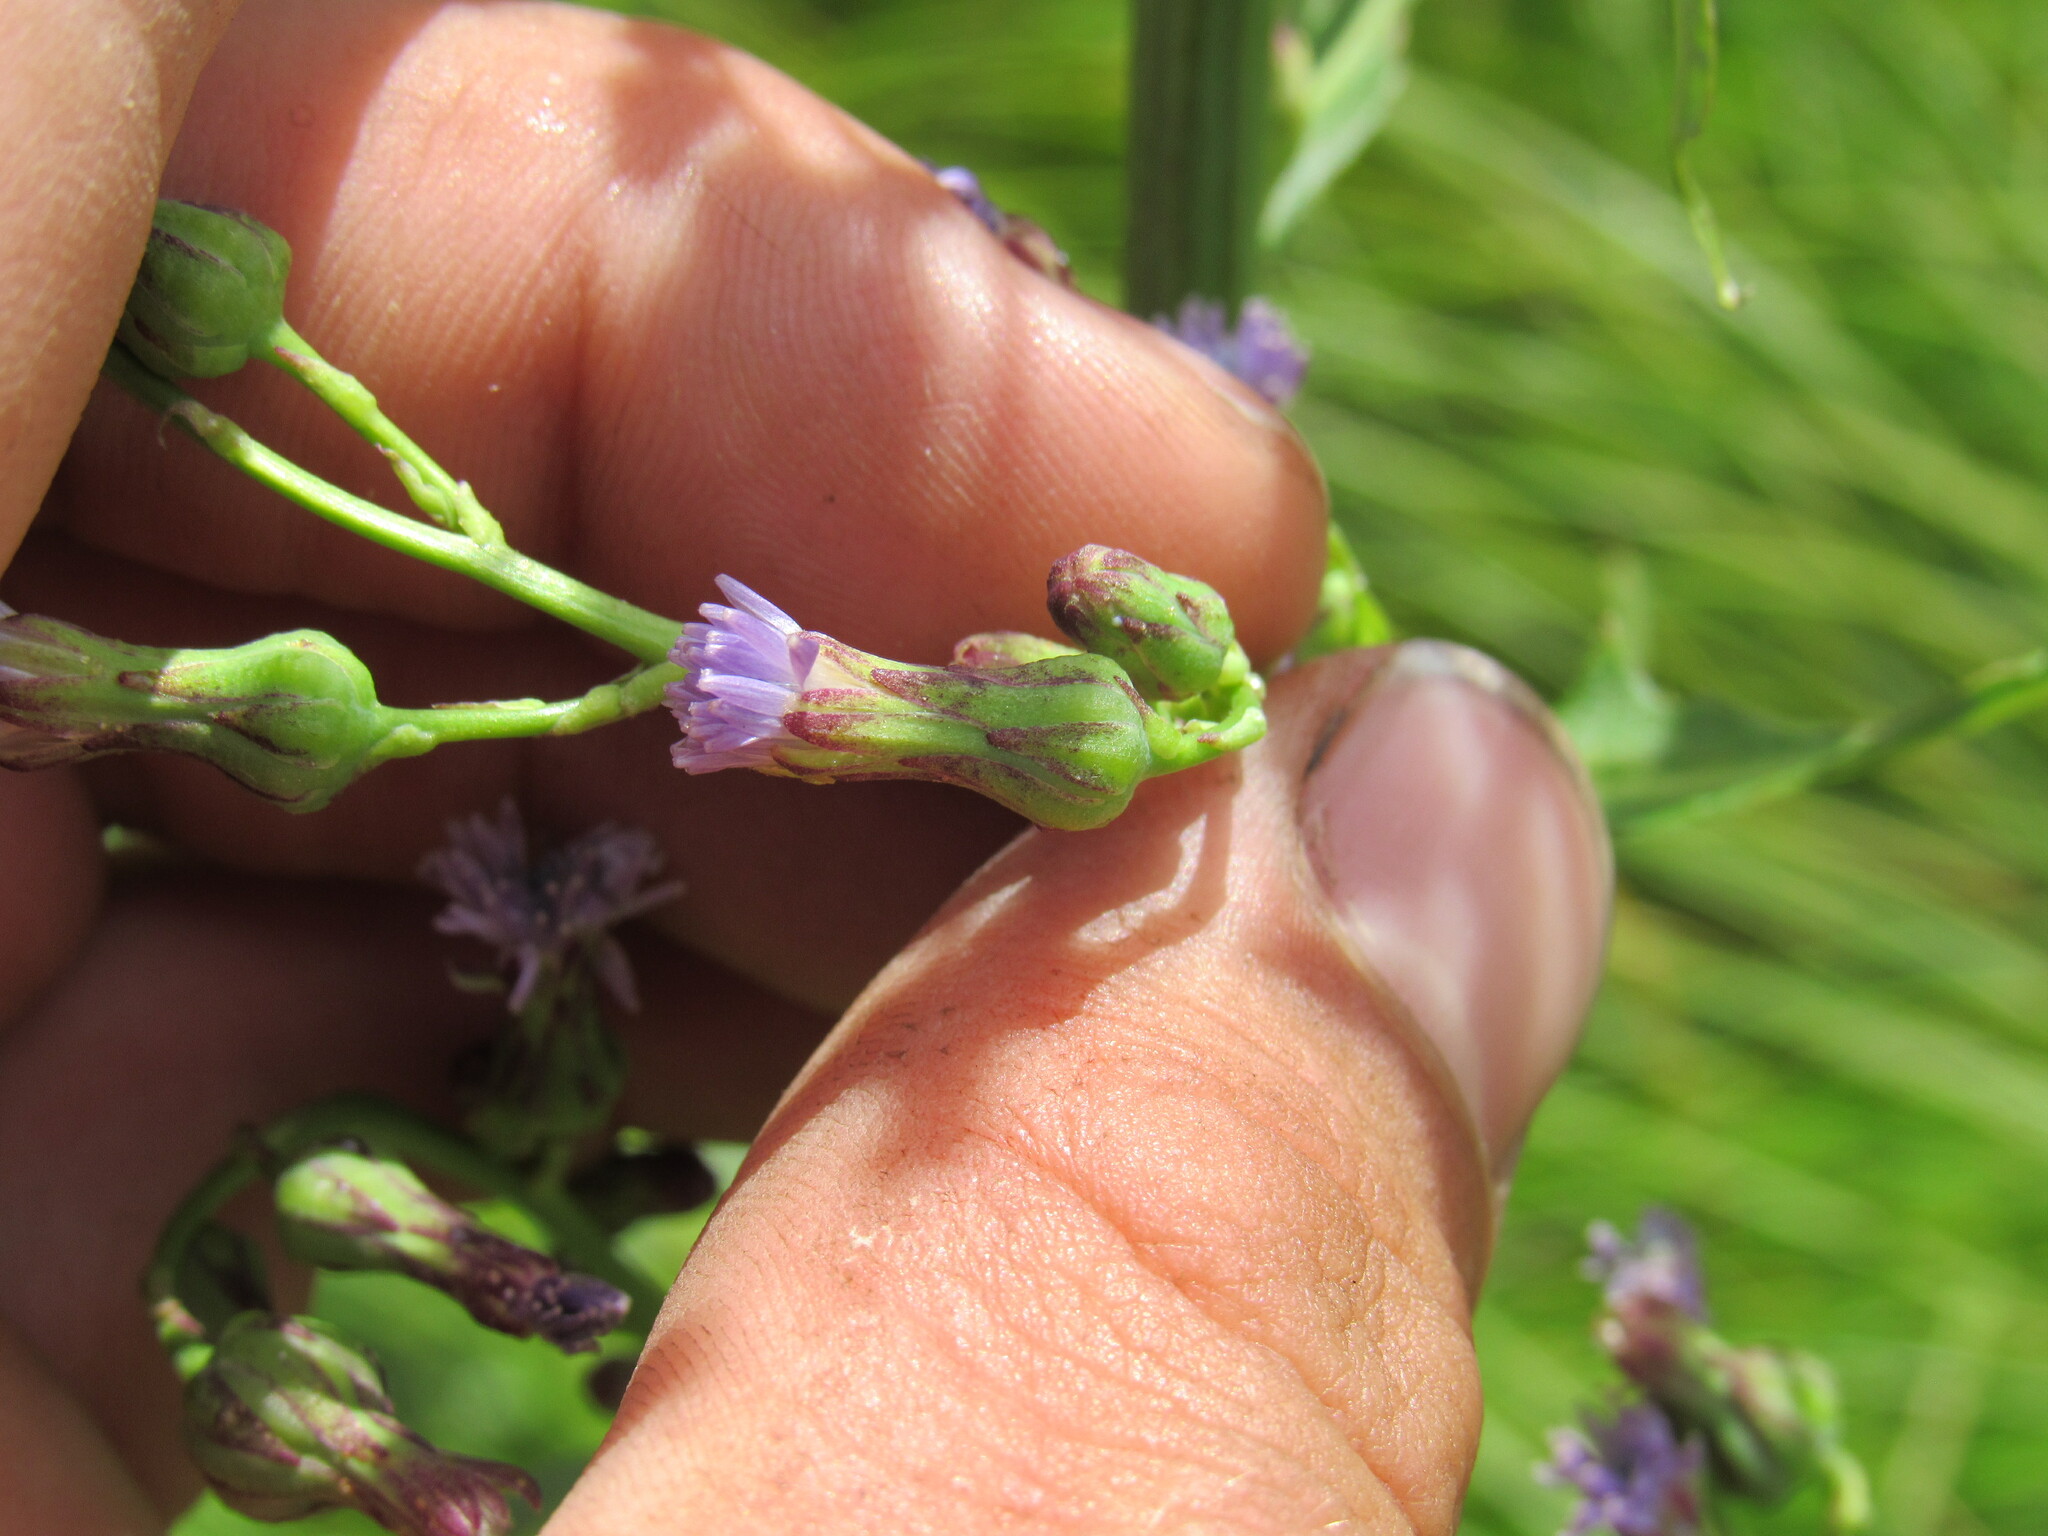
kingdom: Plantae
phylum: Tracheophyta
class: Magnoliopsida
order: Asterales
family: Asteraceae
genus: Lactuca
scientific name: Lactuca biennis
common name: Blue wood lettuce
